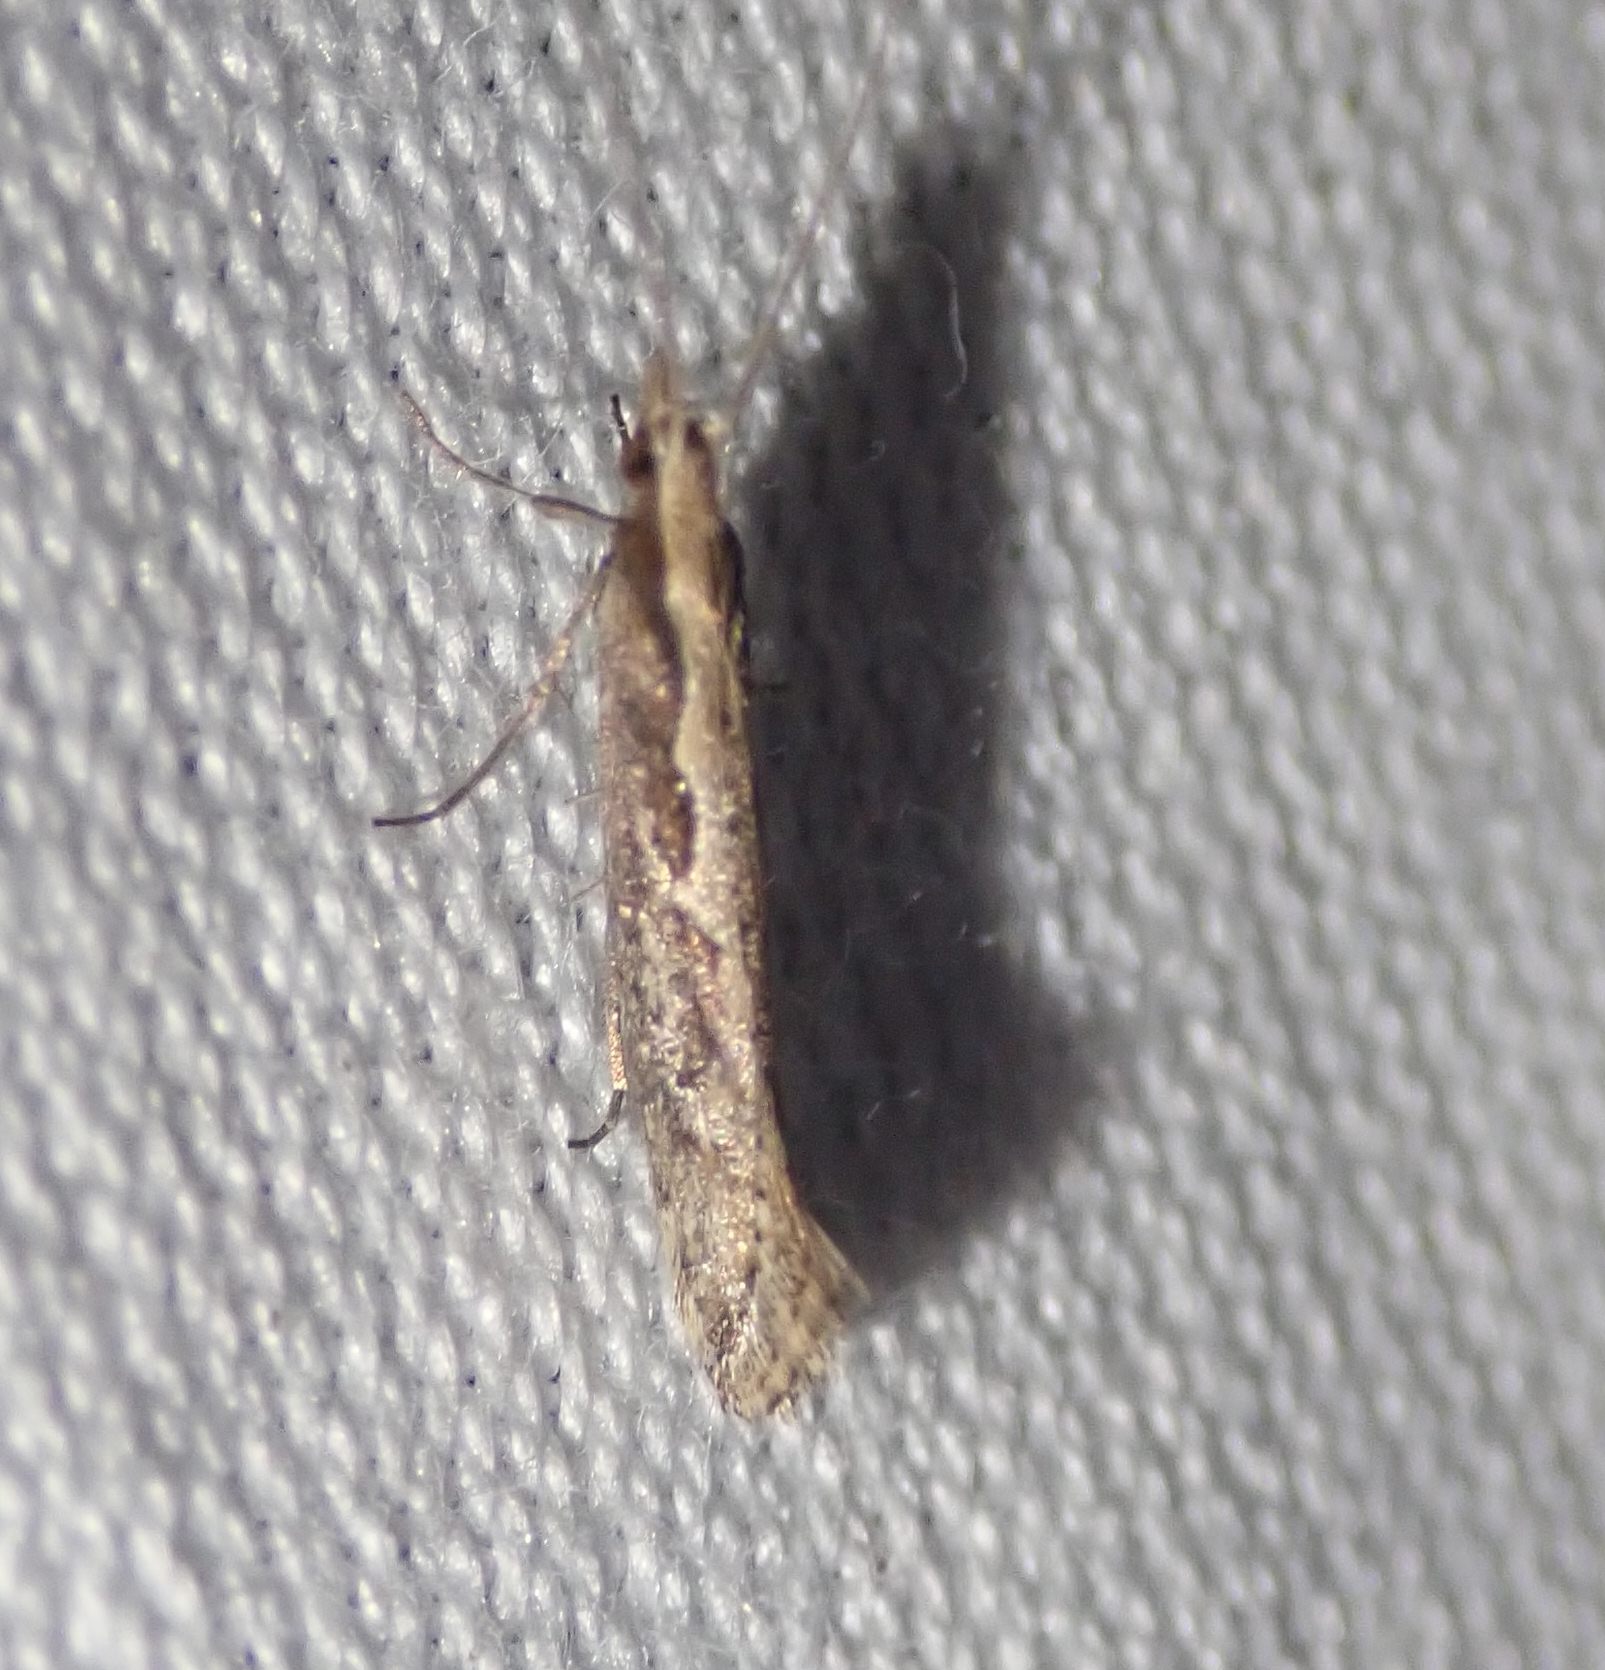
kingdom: Animalia
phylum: Arthropoda
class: Insecta
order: Lepidoptera
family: Plutellidae
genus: Plutella
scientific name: Plutella xylostella
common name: Diamond-back moth
